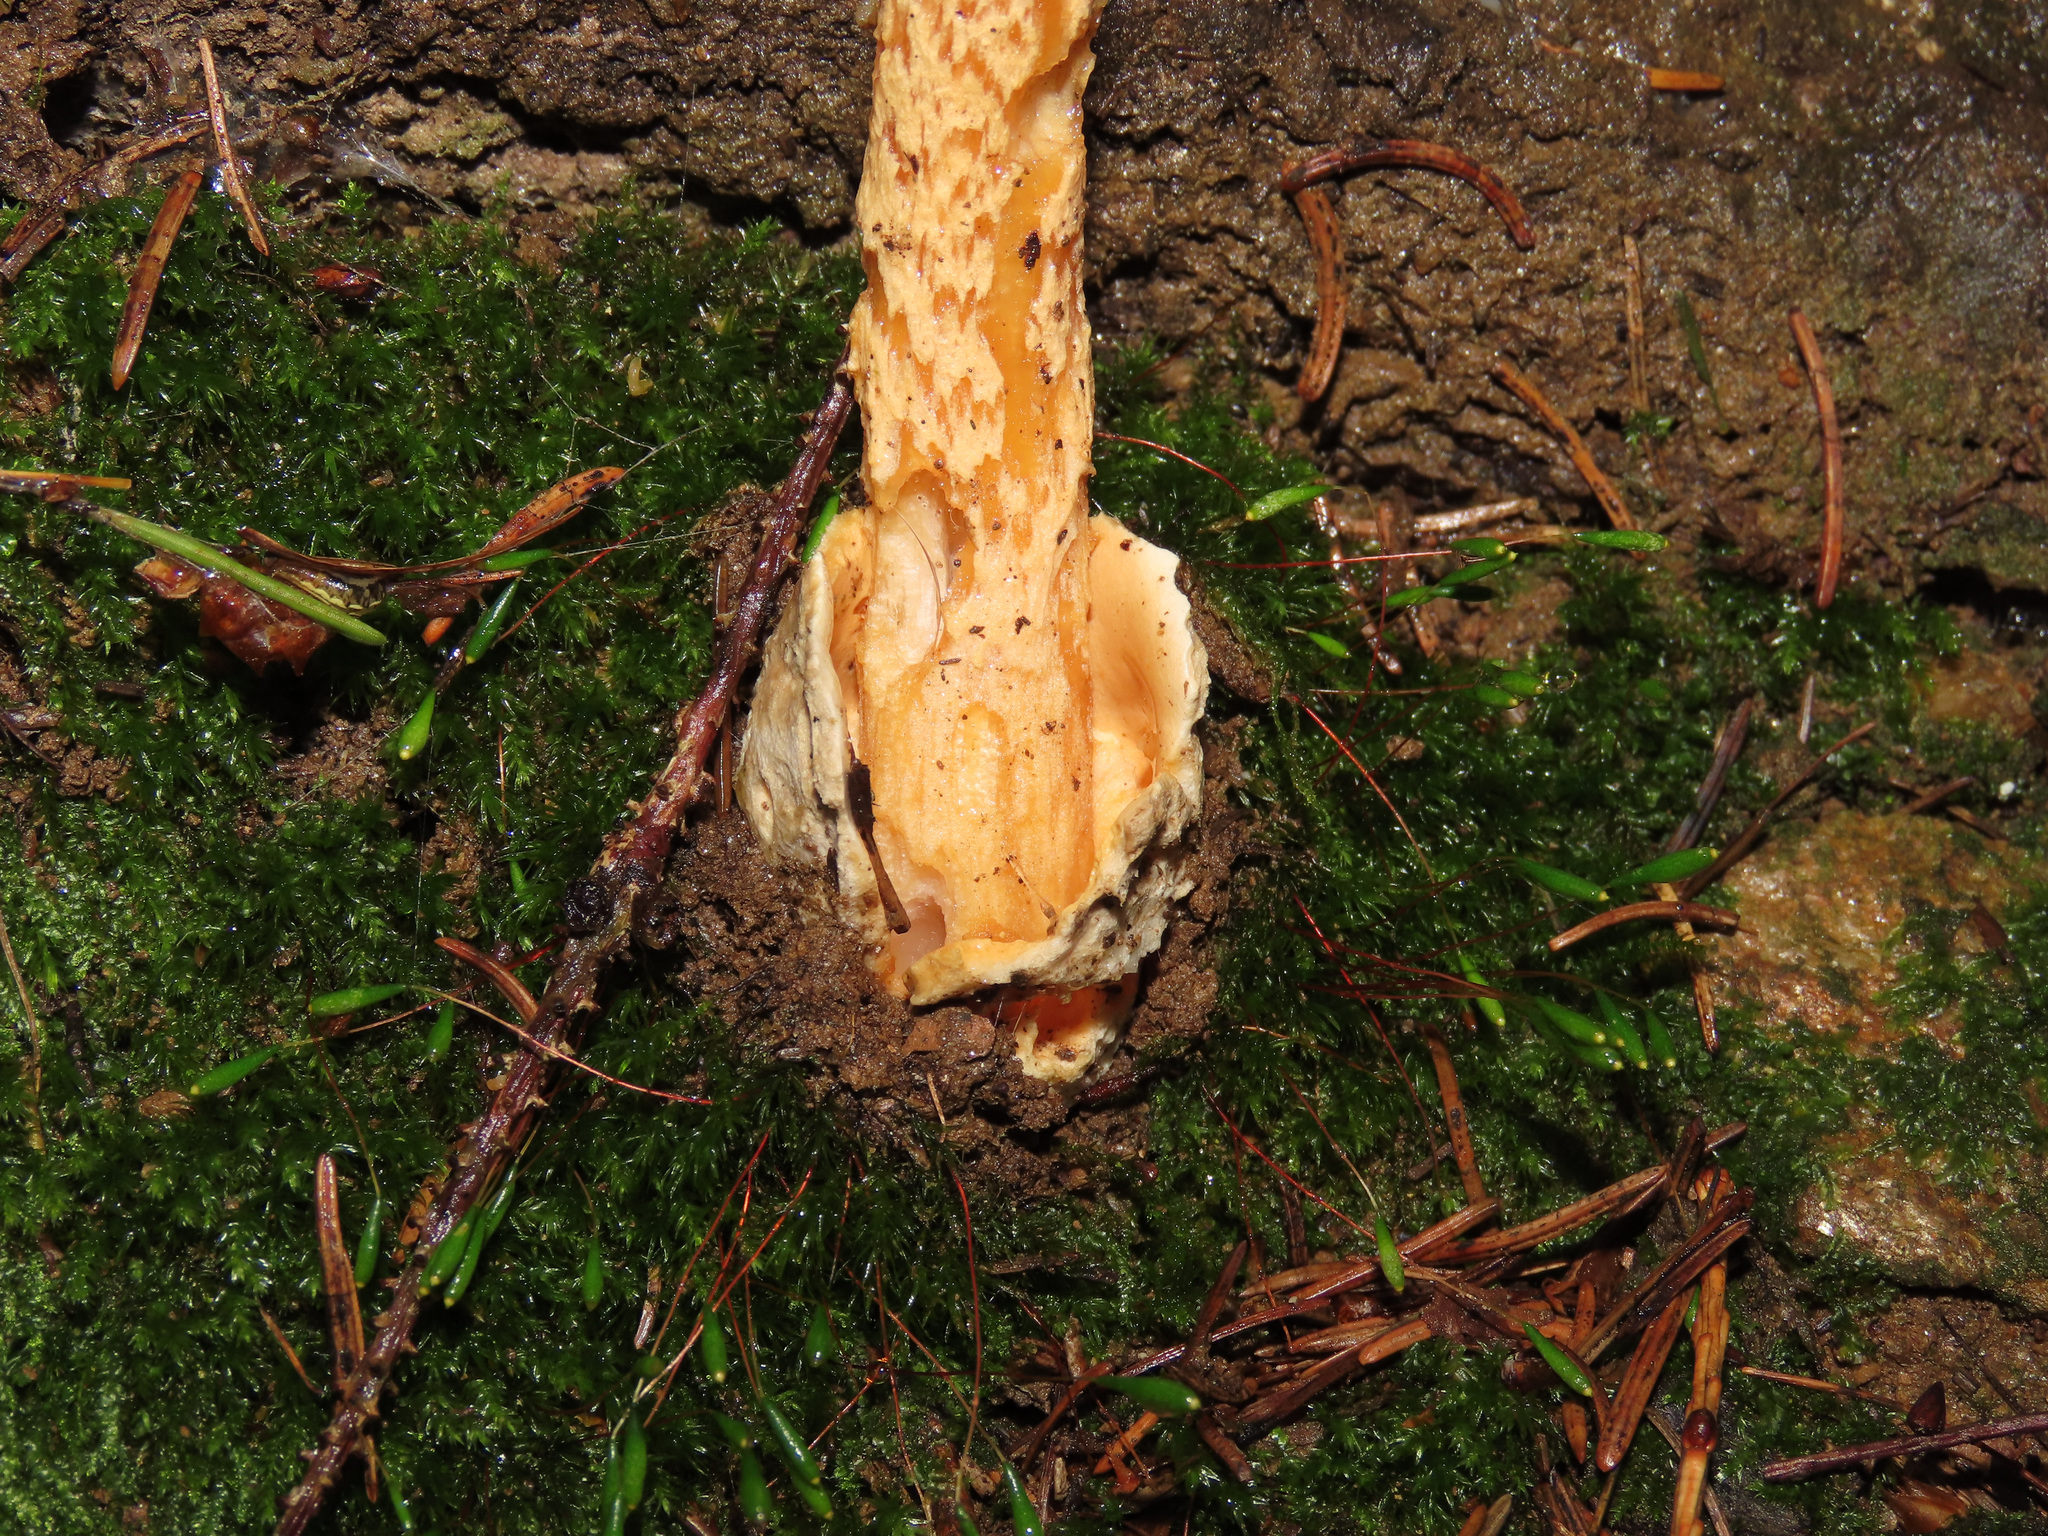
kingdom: Fungi
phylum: Basidiomycota
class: Agaricomycetes
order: Agaricales
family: Amanitaceae
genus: Amanita
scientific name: Amanita crocea
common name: Orange grisette
